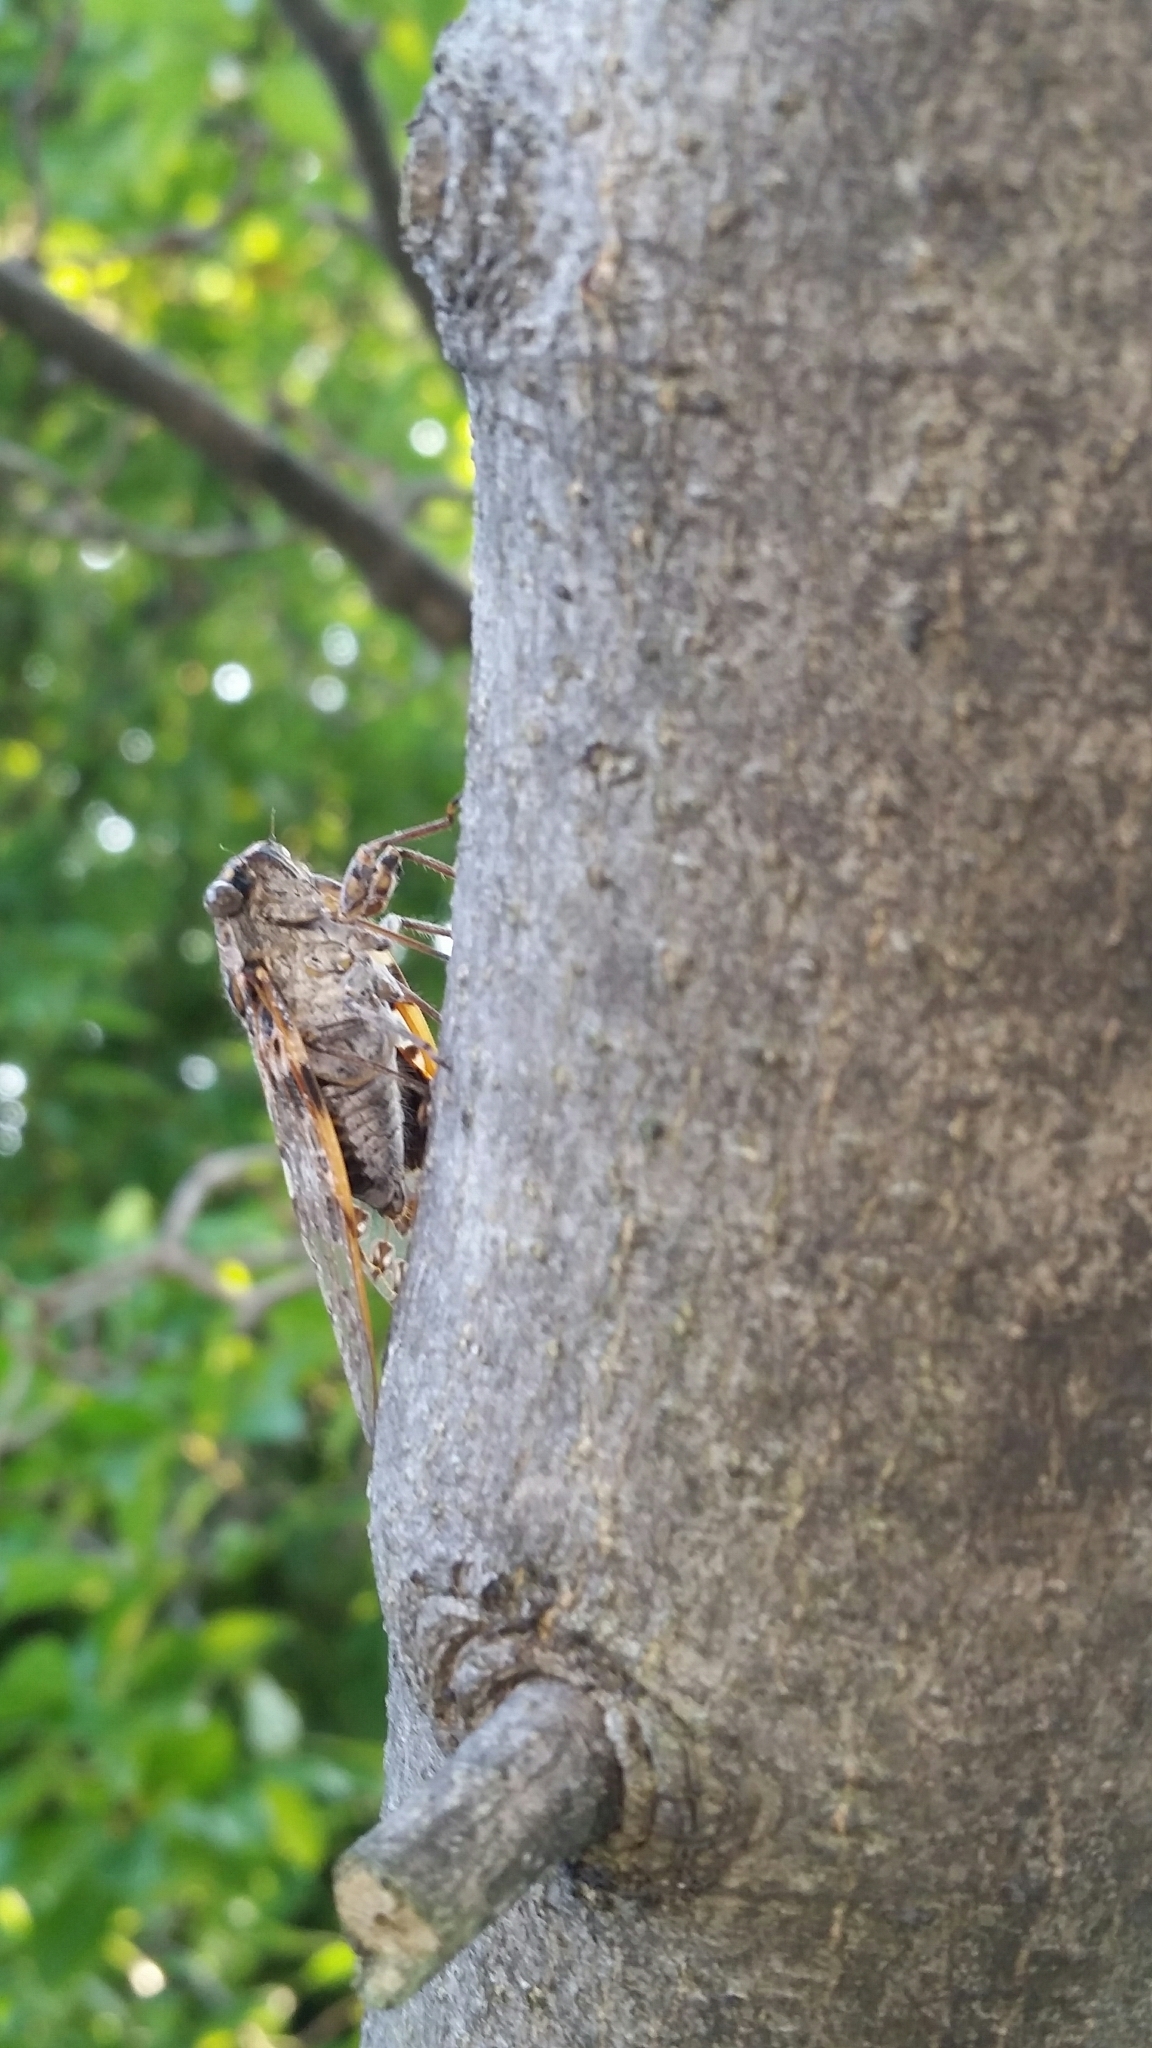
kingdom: Animalia
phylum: Arthropoda
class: Insecta
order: Hemiptera
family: Cicadidae
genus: Platypleura
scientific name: Platypleura kaempferi
